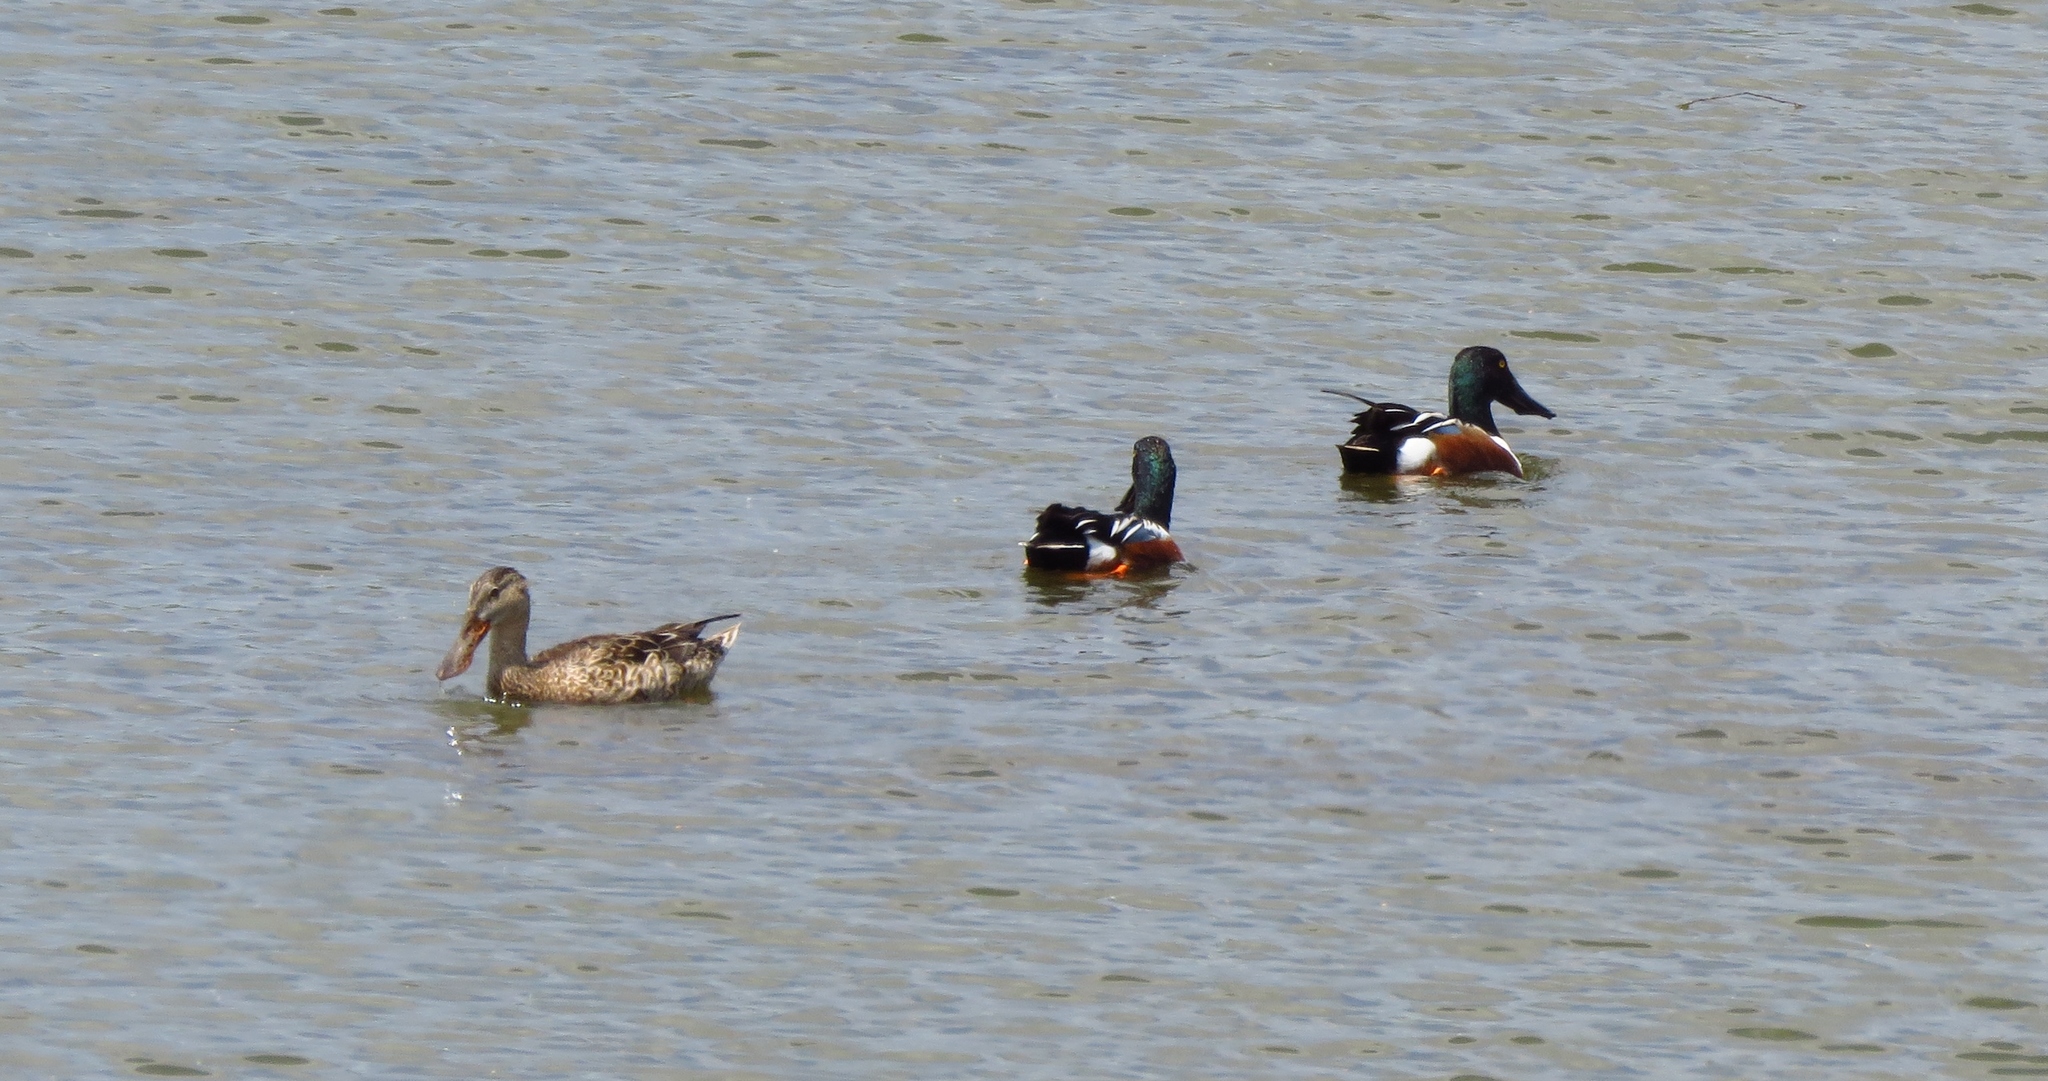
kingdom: Animalia
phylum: Chordata
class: Aves
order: Anseriformes
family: Anatidae
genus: Spatula
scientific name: Spatula clypeata
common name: Northern shoveler
